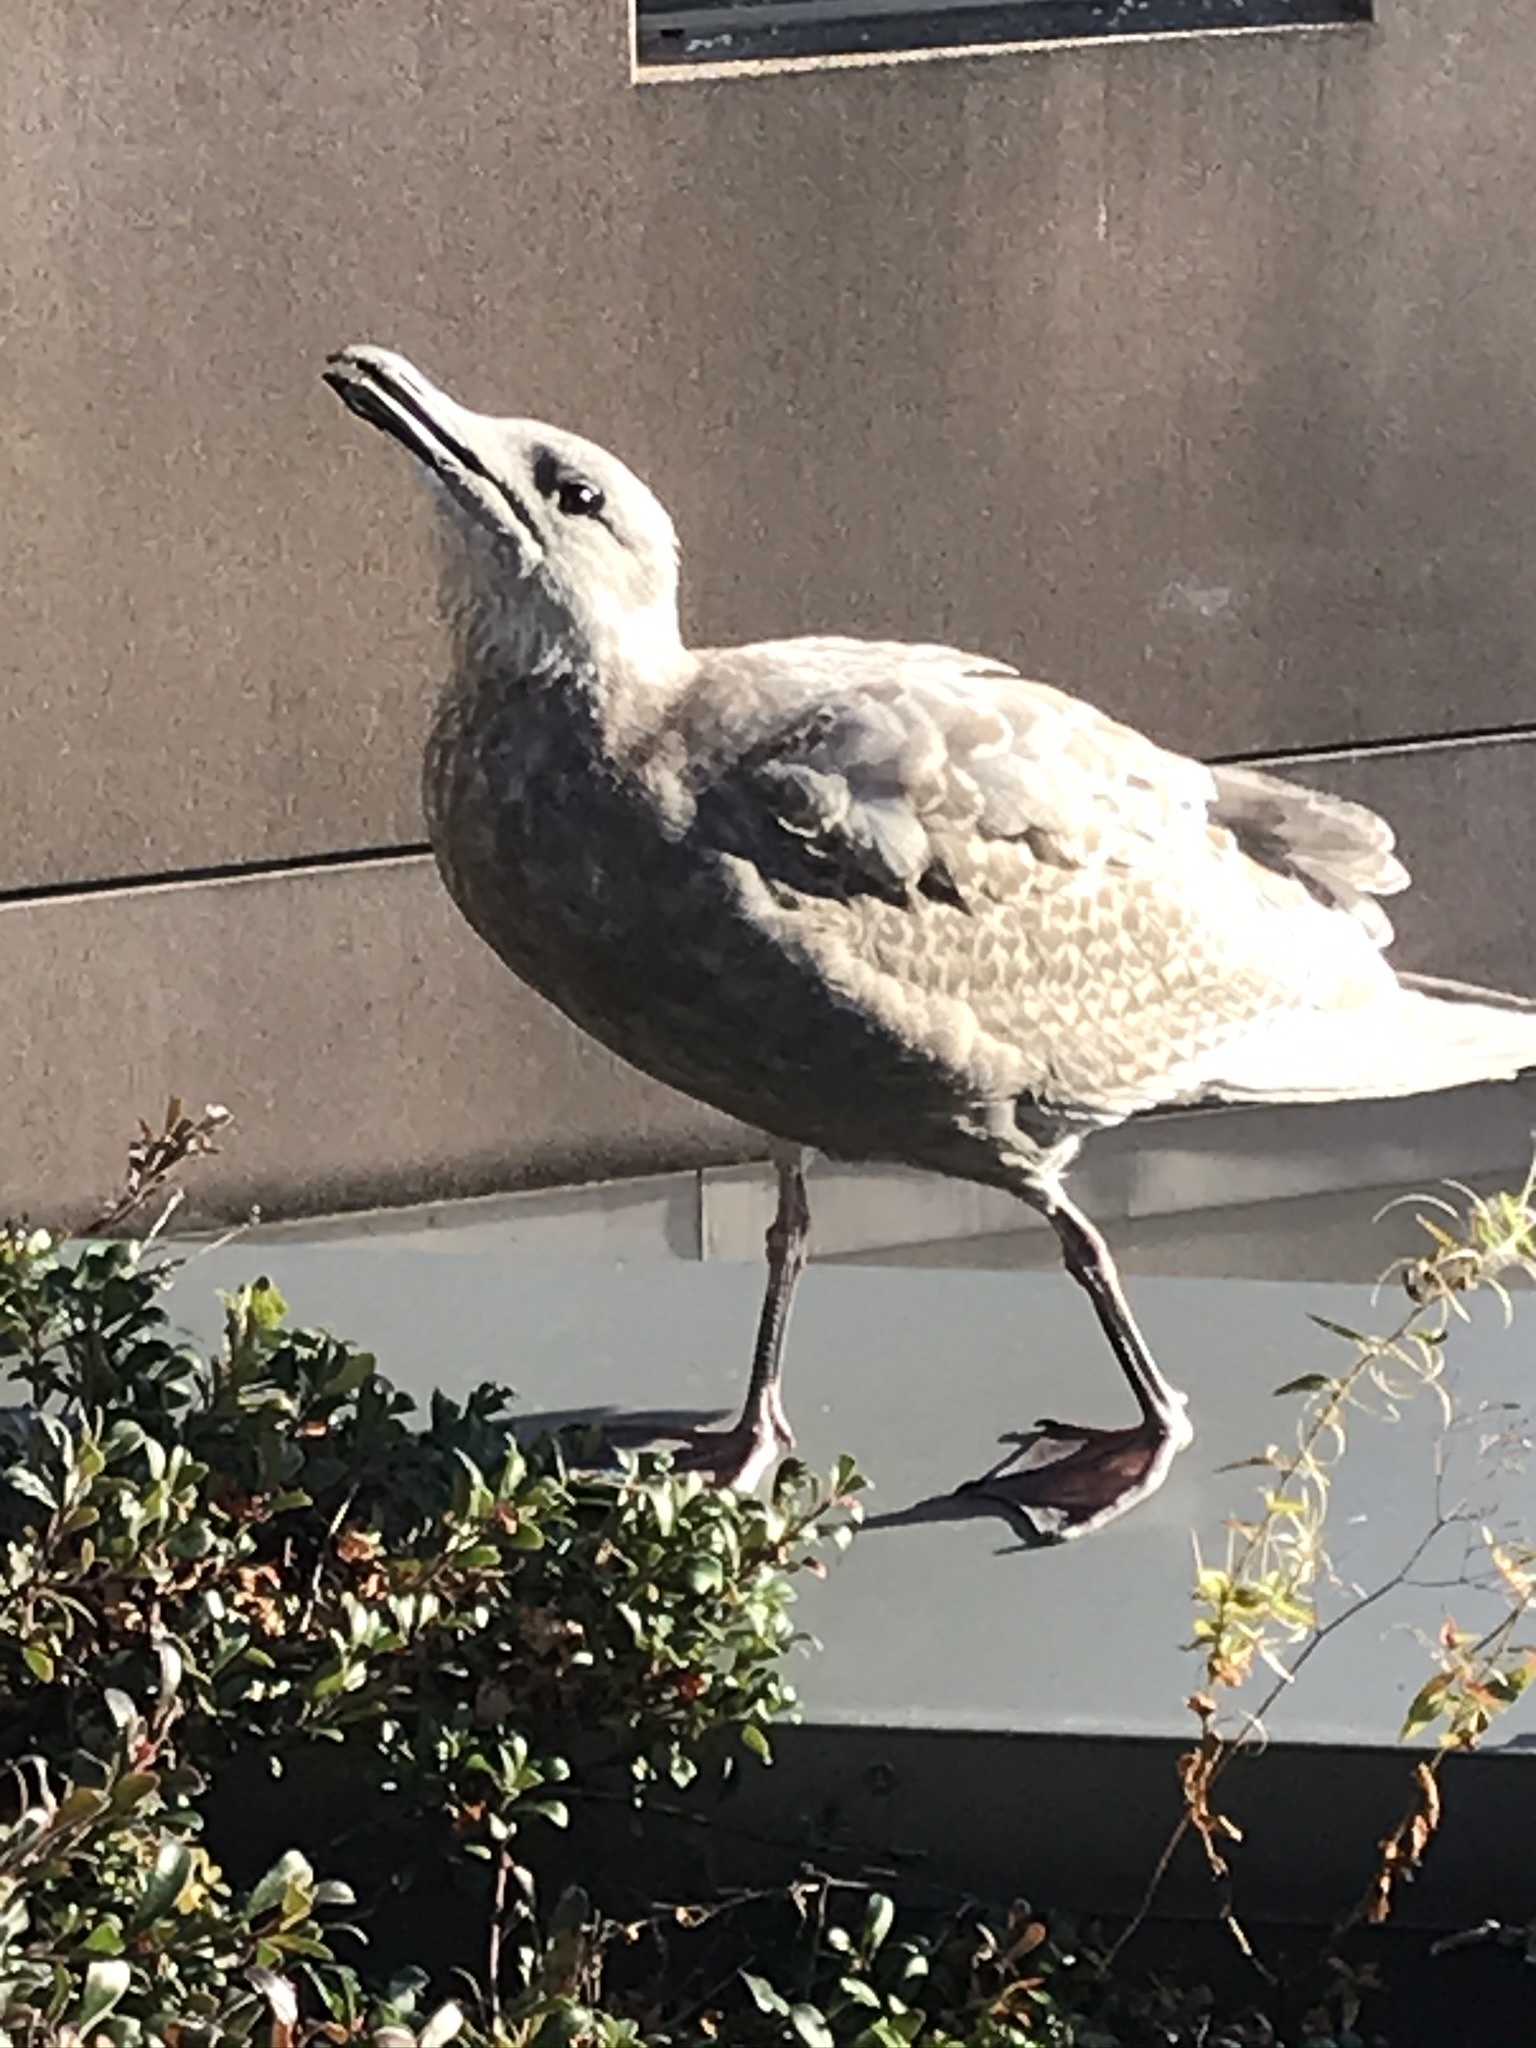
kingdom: Animalia
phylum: Chordata
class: Aves
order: Charadriiformes
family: Laridae
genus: Larus
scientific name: Larus glaucescens
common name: Glaucous-winged gull
